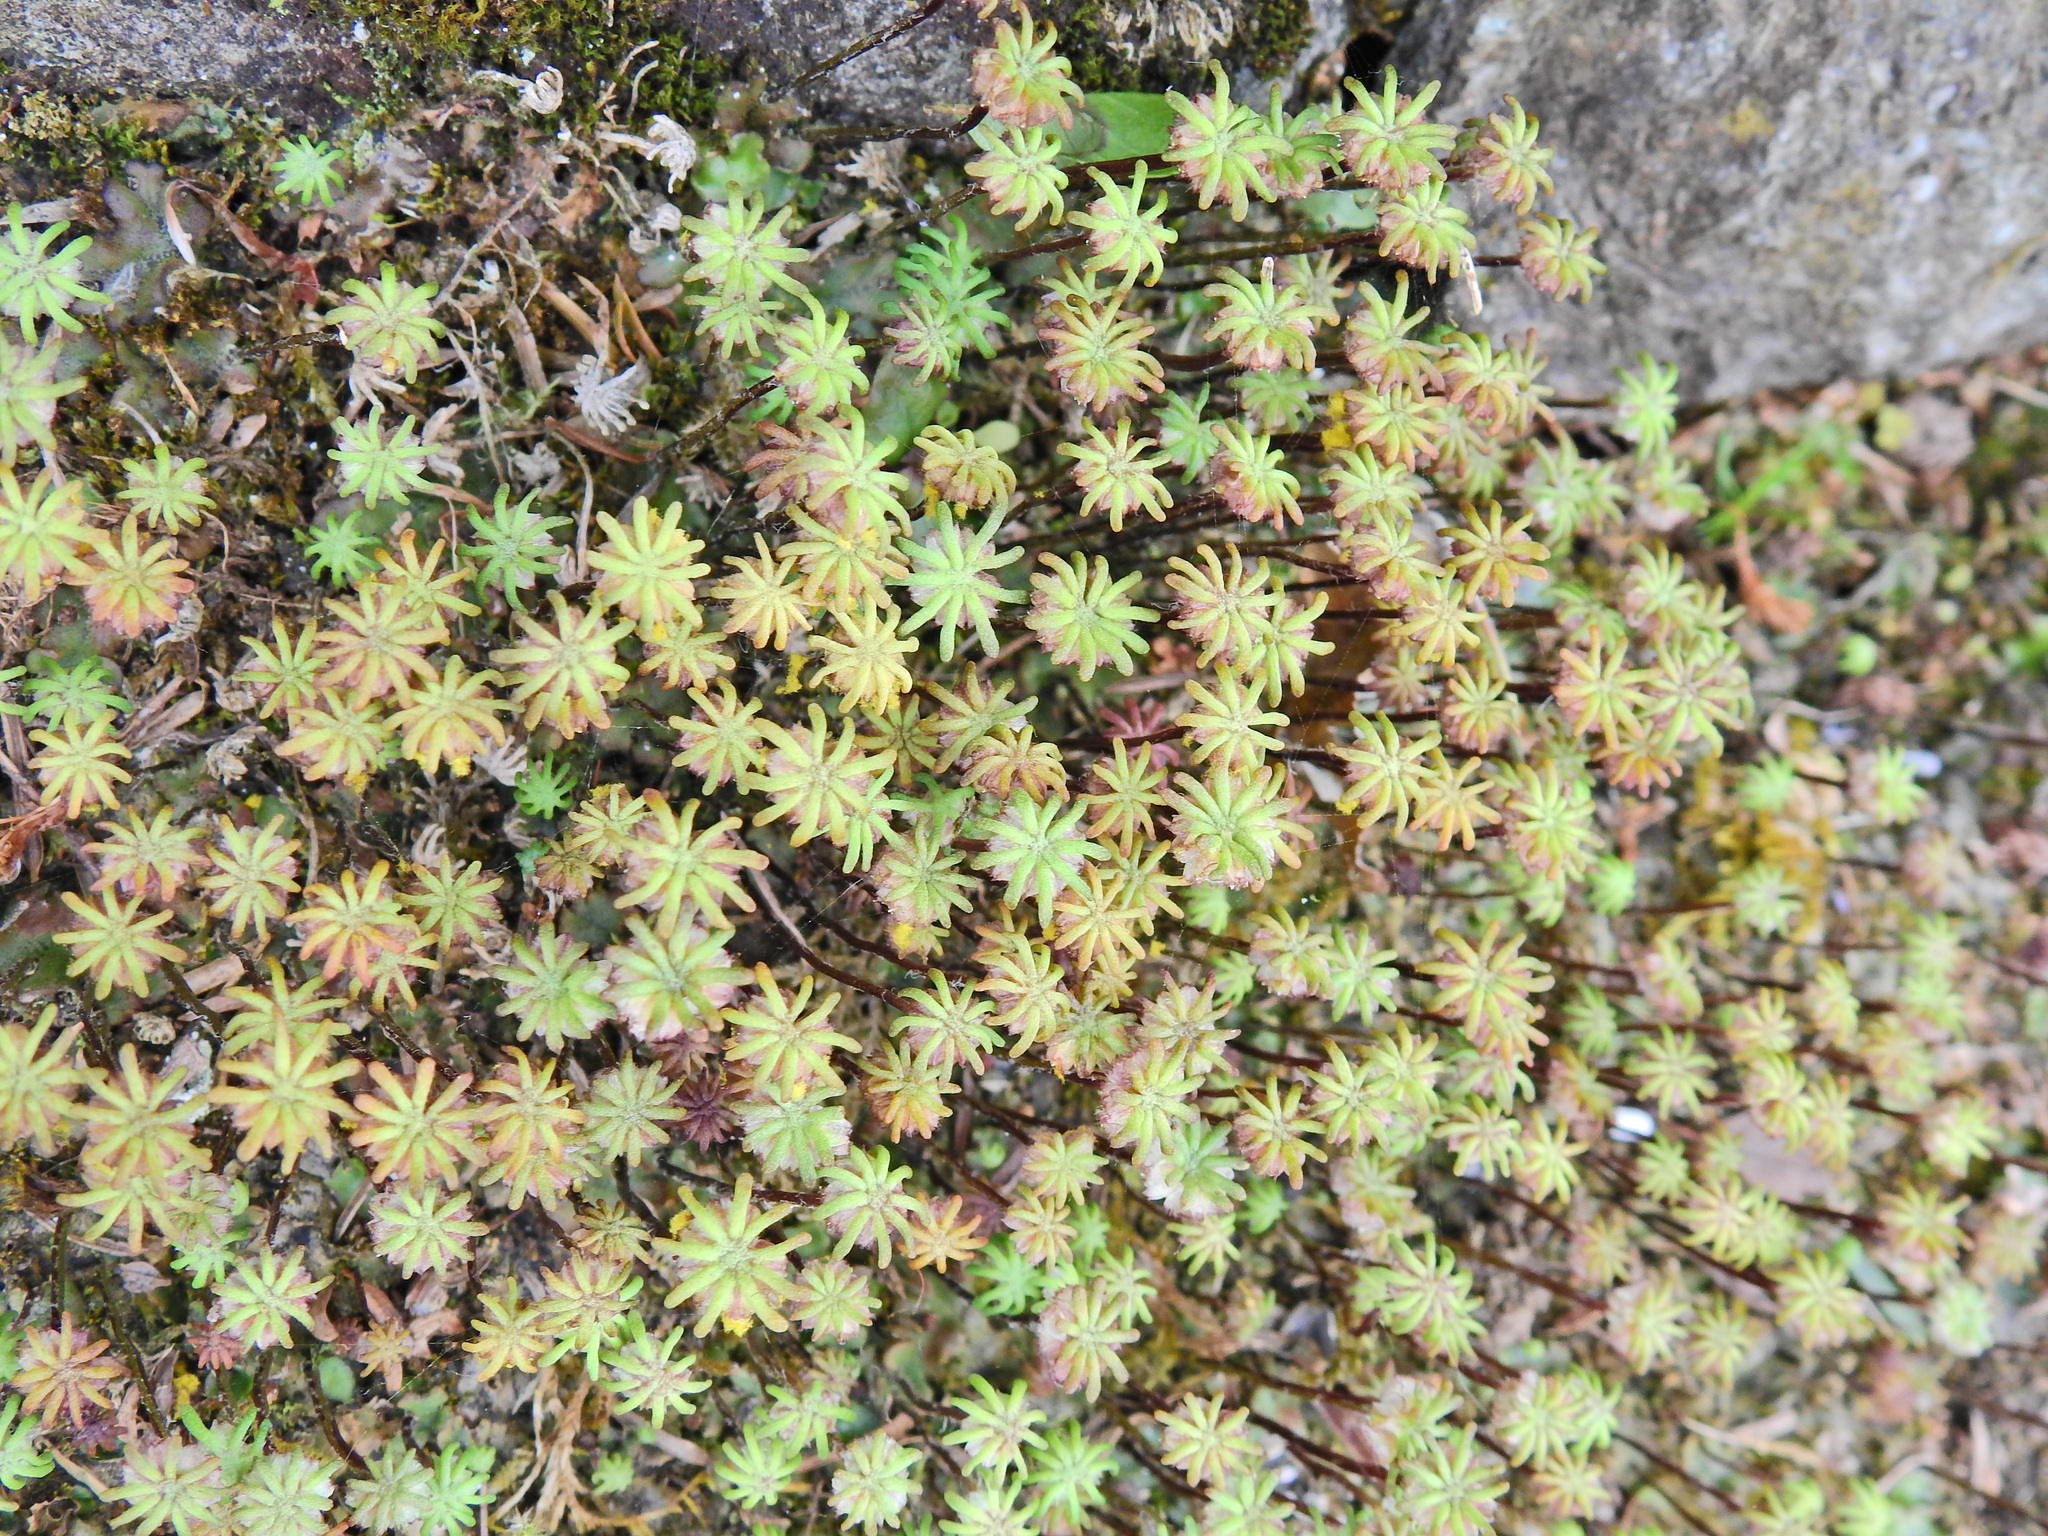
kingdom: Plantae
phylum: Marchantiophyta
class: Marchantiopsida
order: Marchantiales
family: Marchantiaceae
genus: Marchantia
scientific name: Marchantia polymorpha
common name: Common liverwort
